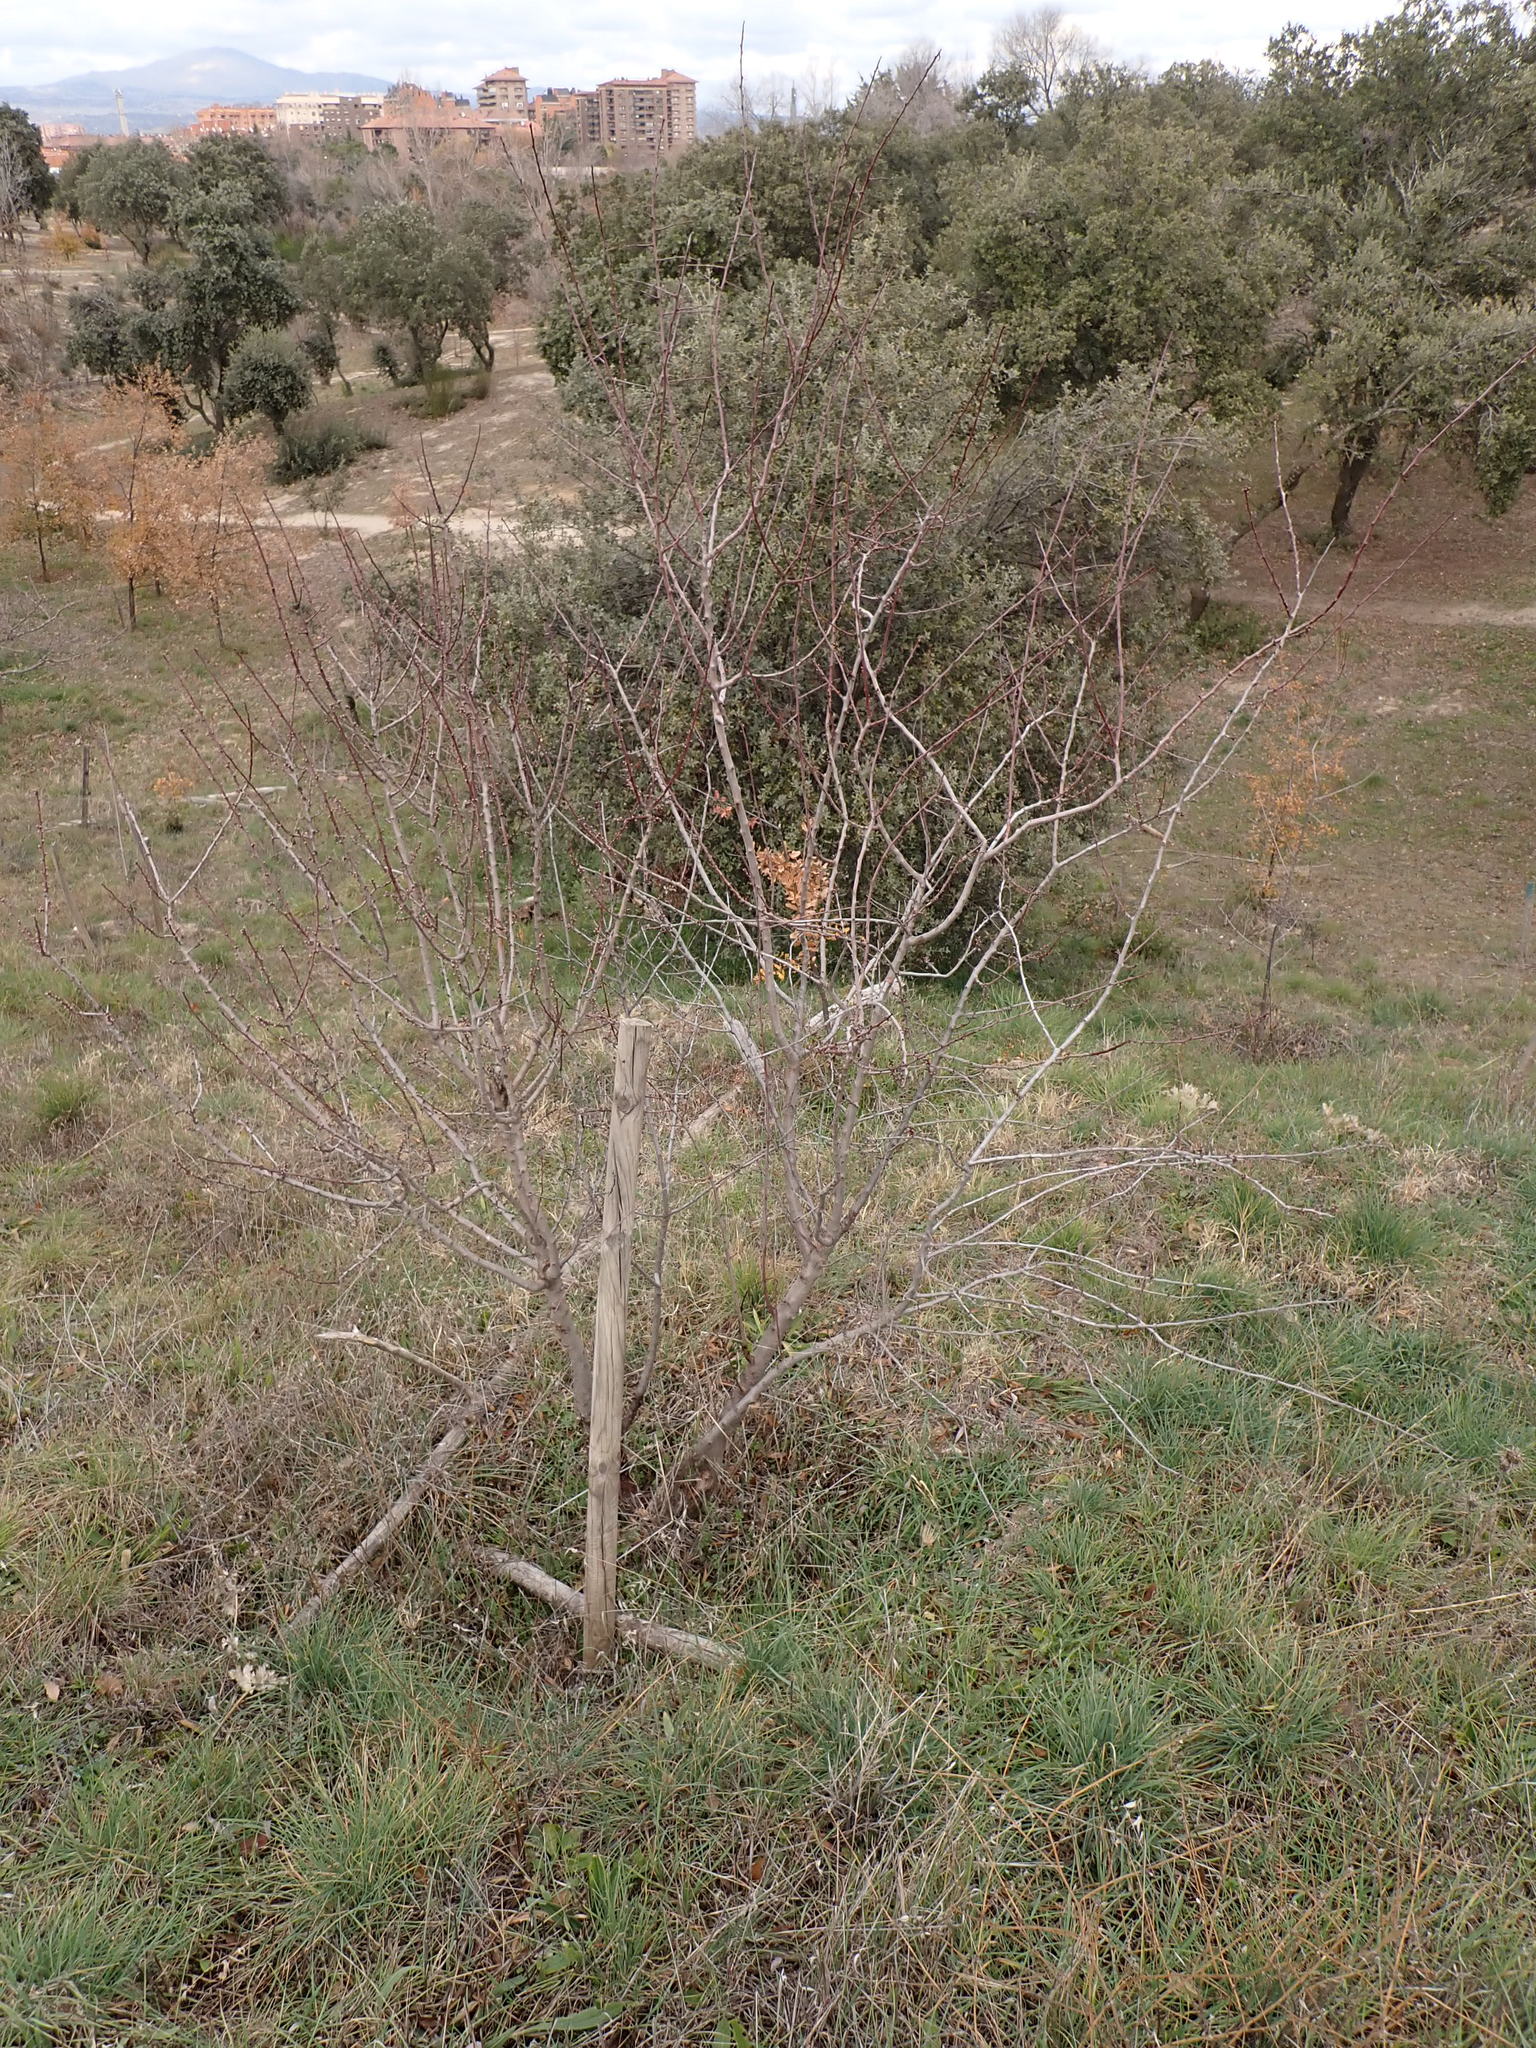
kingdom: Plantae
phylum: Tracheophyta
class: Magnoliopsida
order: Rosales
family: Rosaceae
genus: Prunus
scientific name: Prunus amygdalus
